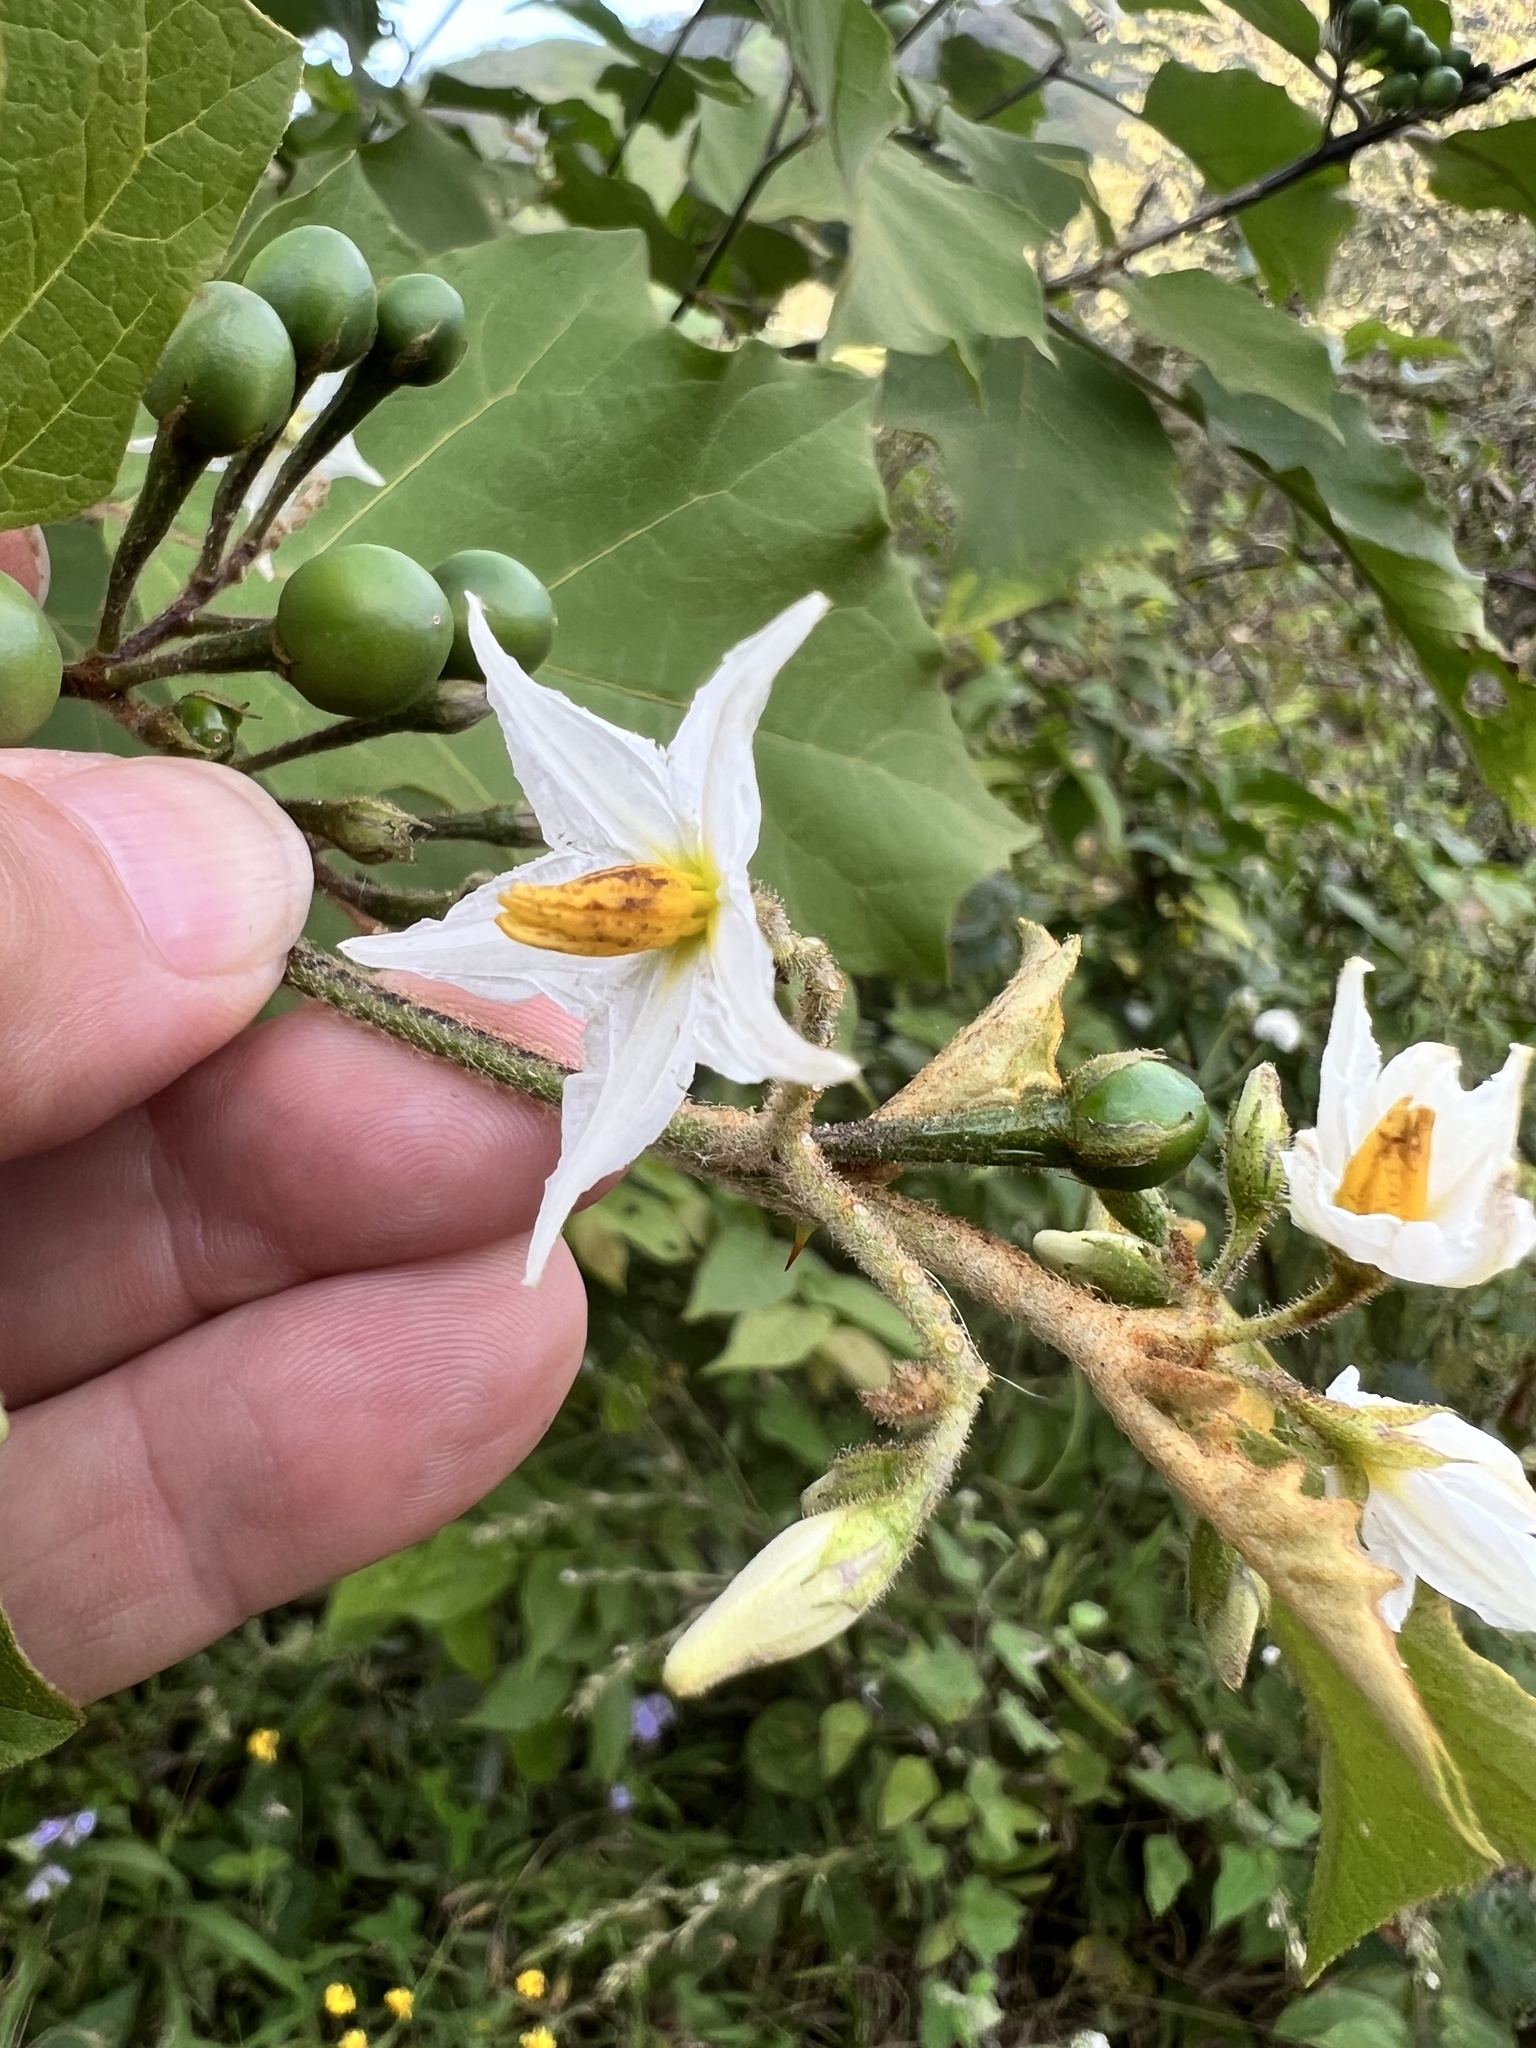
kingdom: Plantae
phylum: Tracheophyta
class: Magnoliopsida
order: Solanales
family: Solanaceae
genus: Solanum
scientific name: Solanum torvum
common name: Turkey berry
